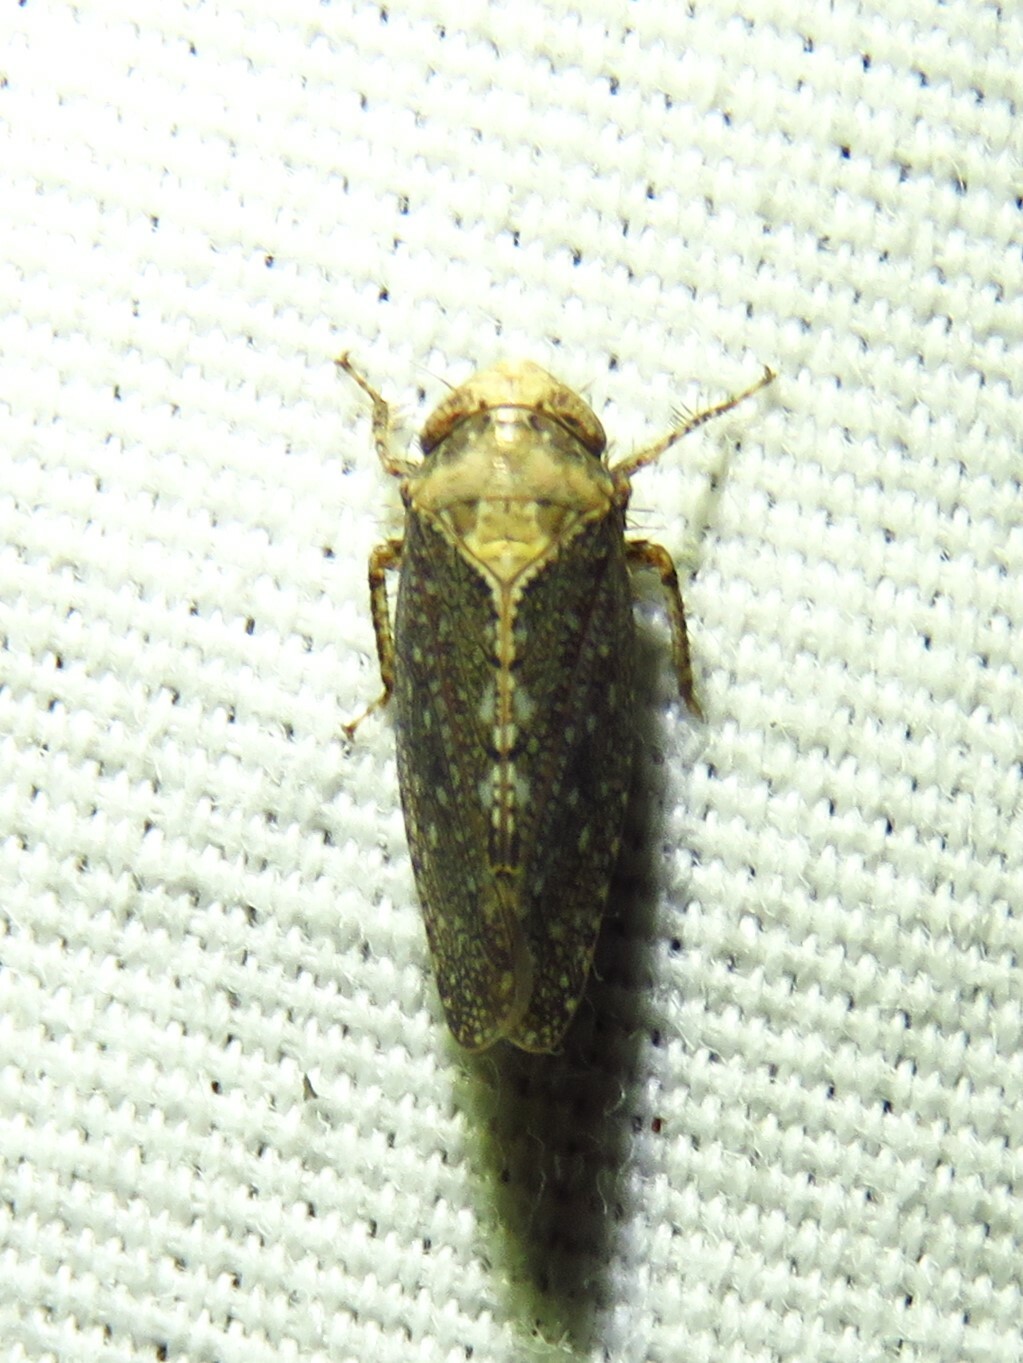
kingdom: Animalia
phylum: Arthropoda
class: Insecta
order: Hemiptera
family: Cicadellidae
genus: Excultanus
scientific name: Excultanus excultus
